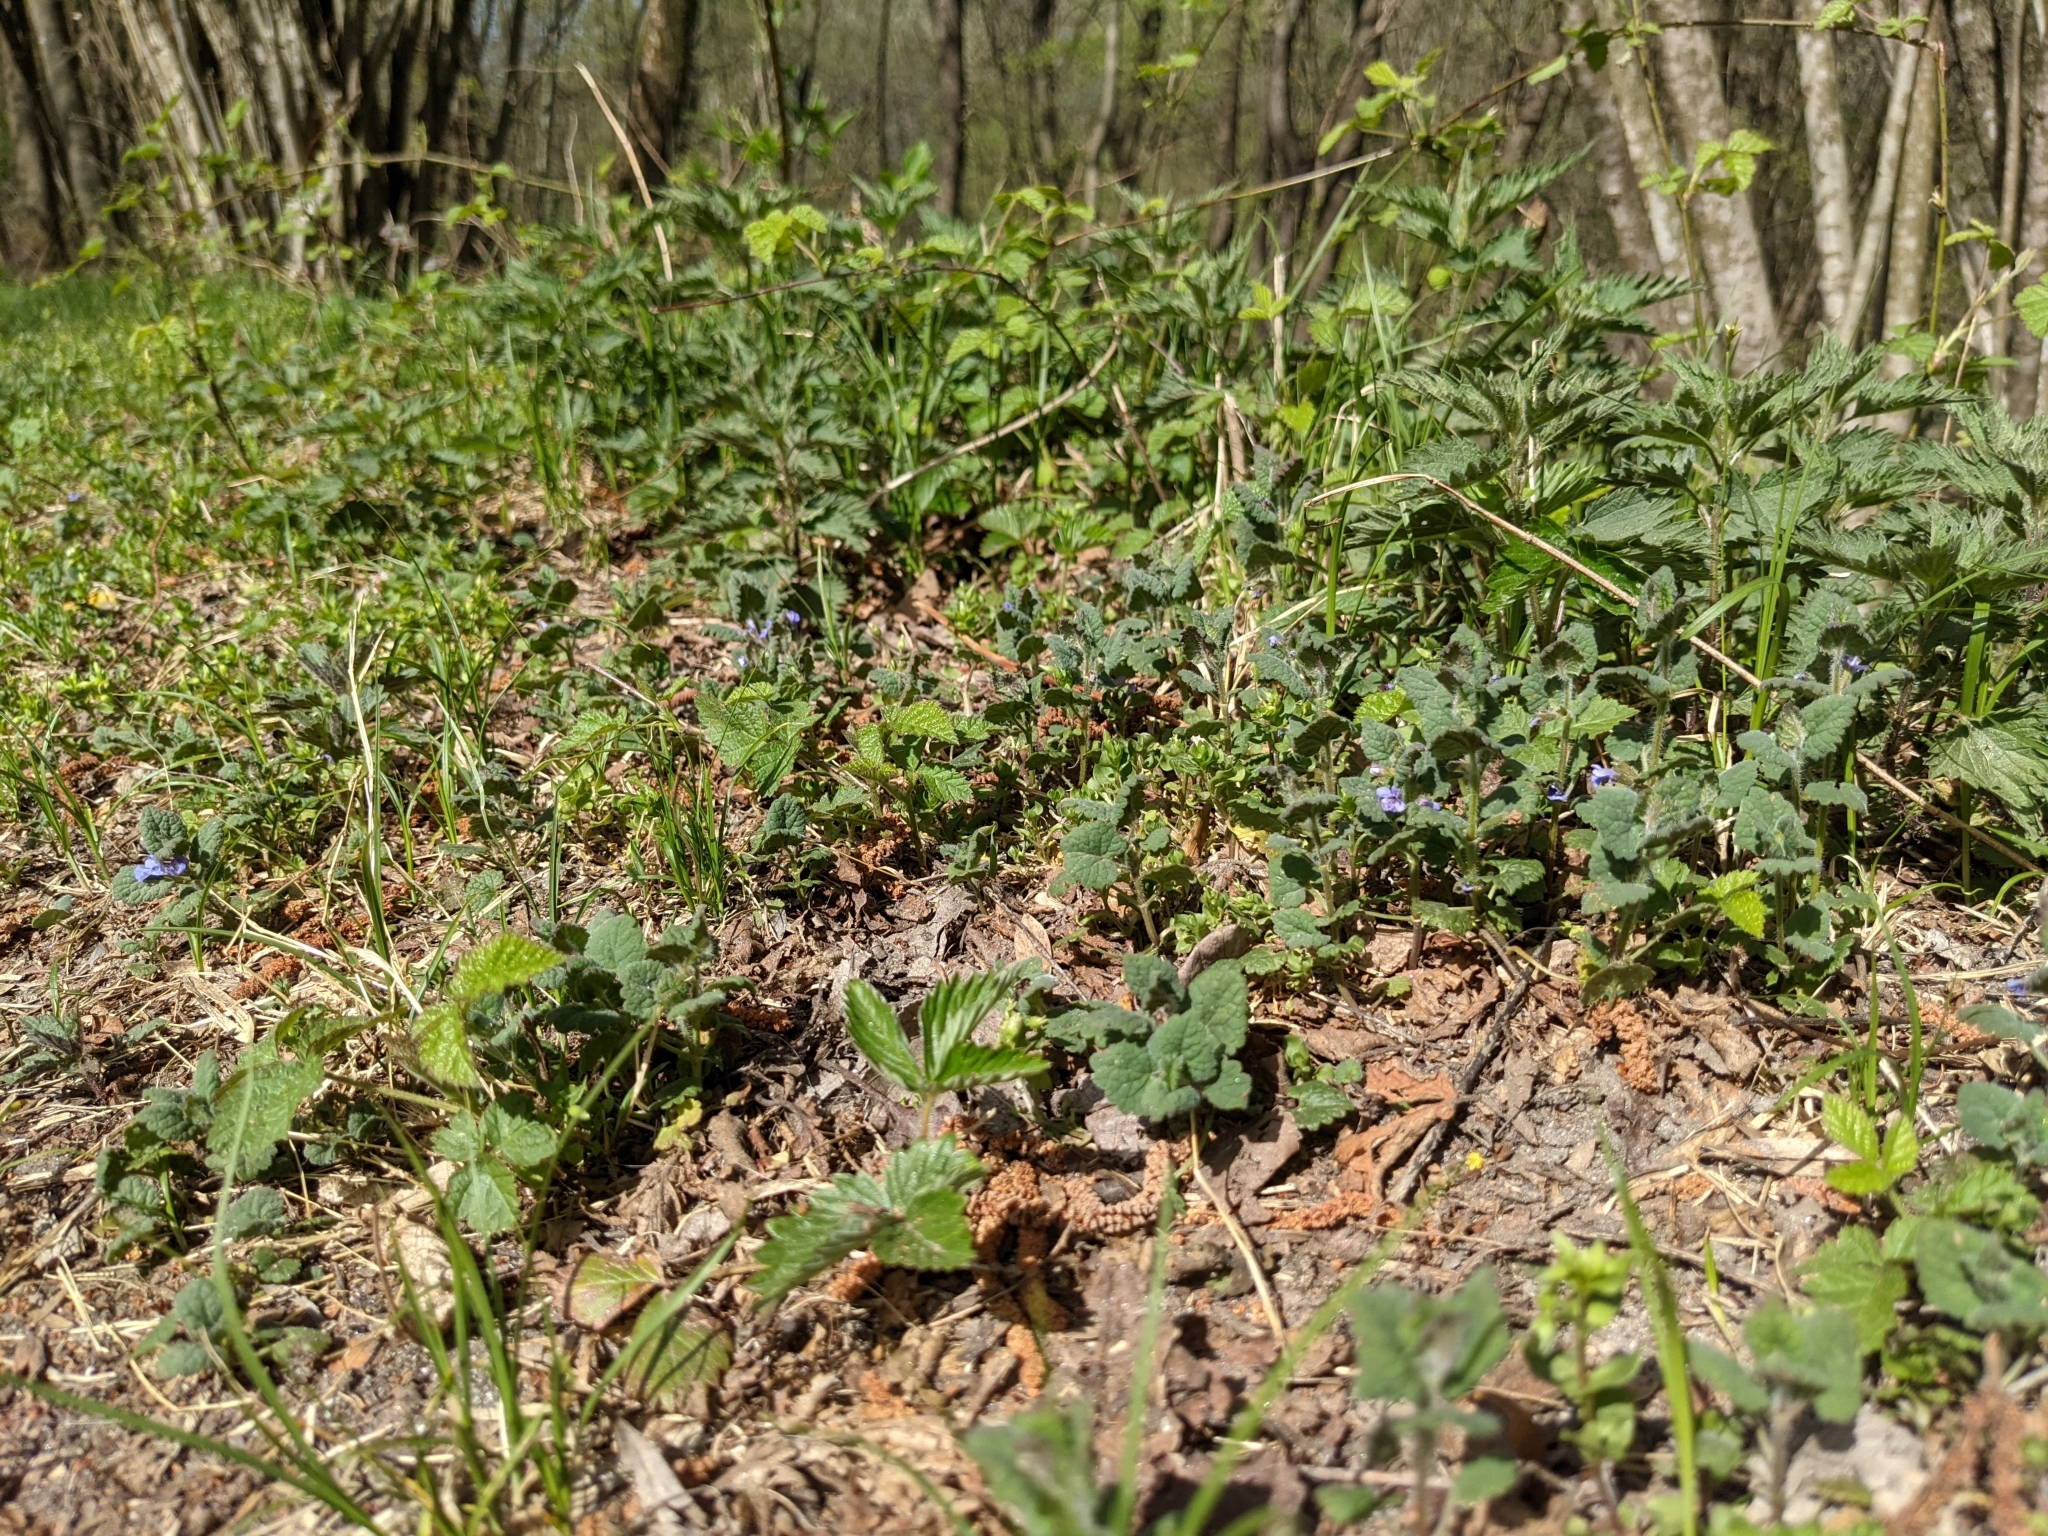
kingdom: Plantae
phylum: Tracheophyta
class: Magnoliopsida
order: Lamiales
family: Lamiaceae
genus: Glechoma
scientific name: Glechoma hederacea
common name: Ground ivy
